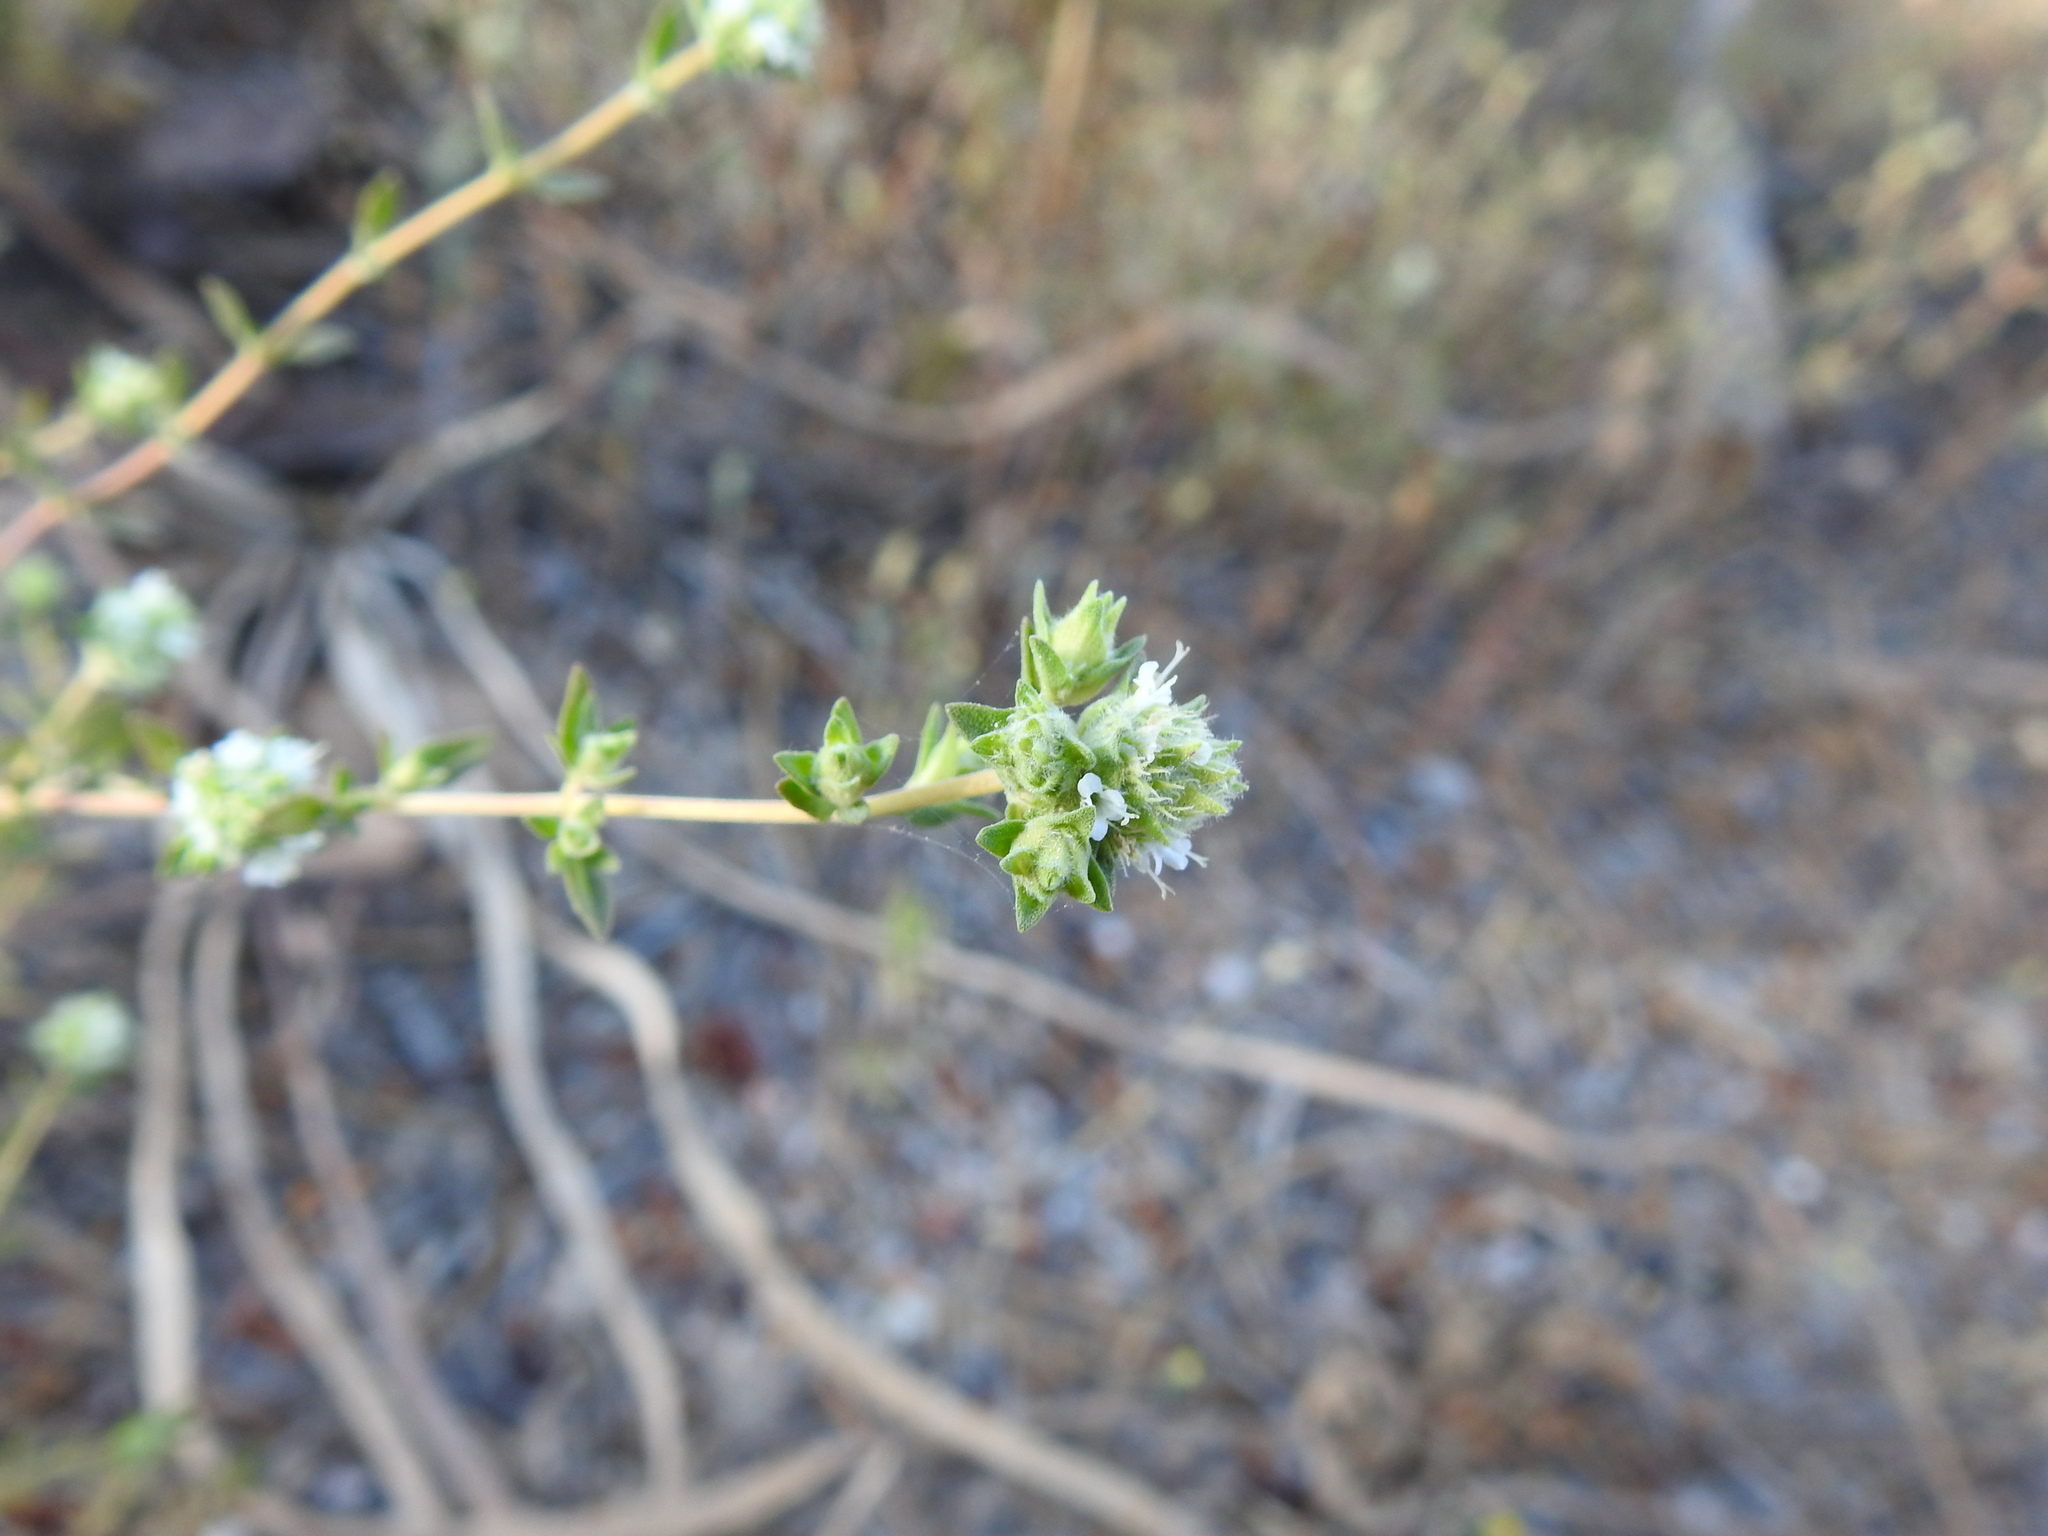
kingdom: Plantae
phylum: Tracheophyta
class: Magnoliopsida
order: Lamiales
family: Lamiaceae
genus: Thymus
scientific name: Thymus albicans
